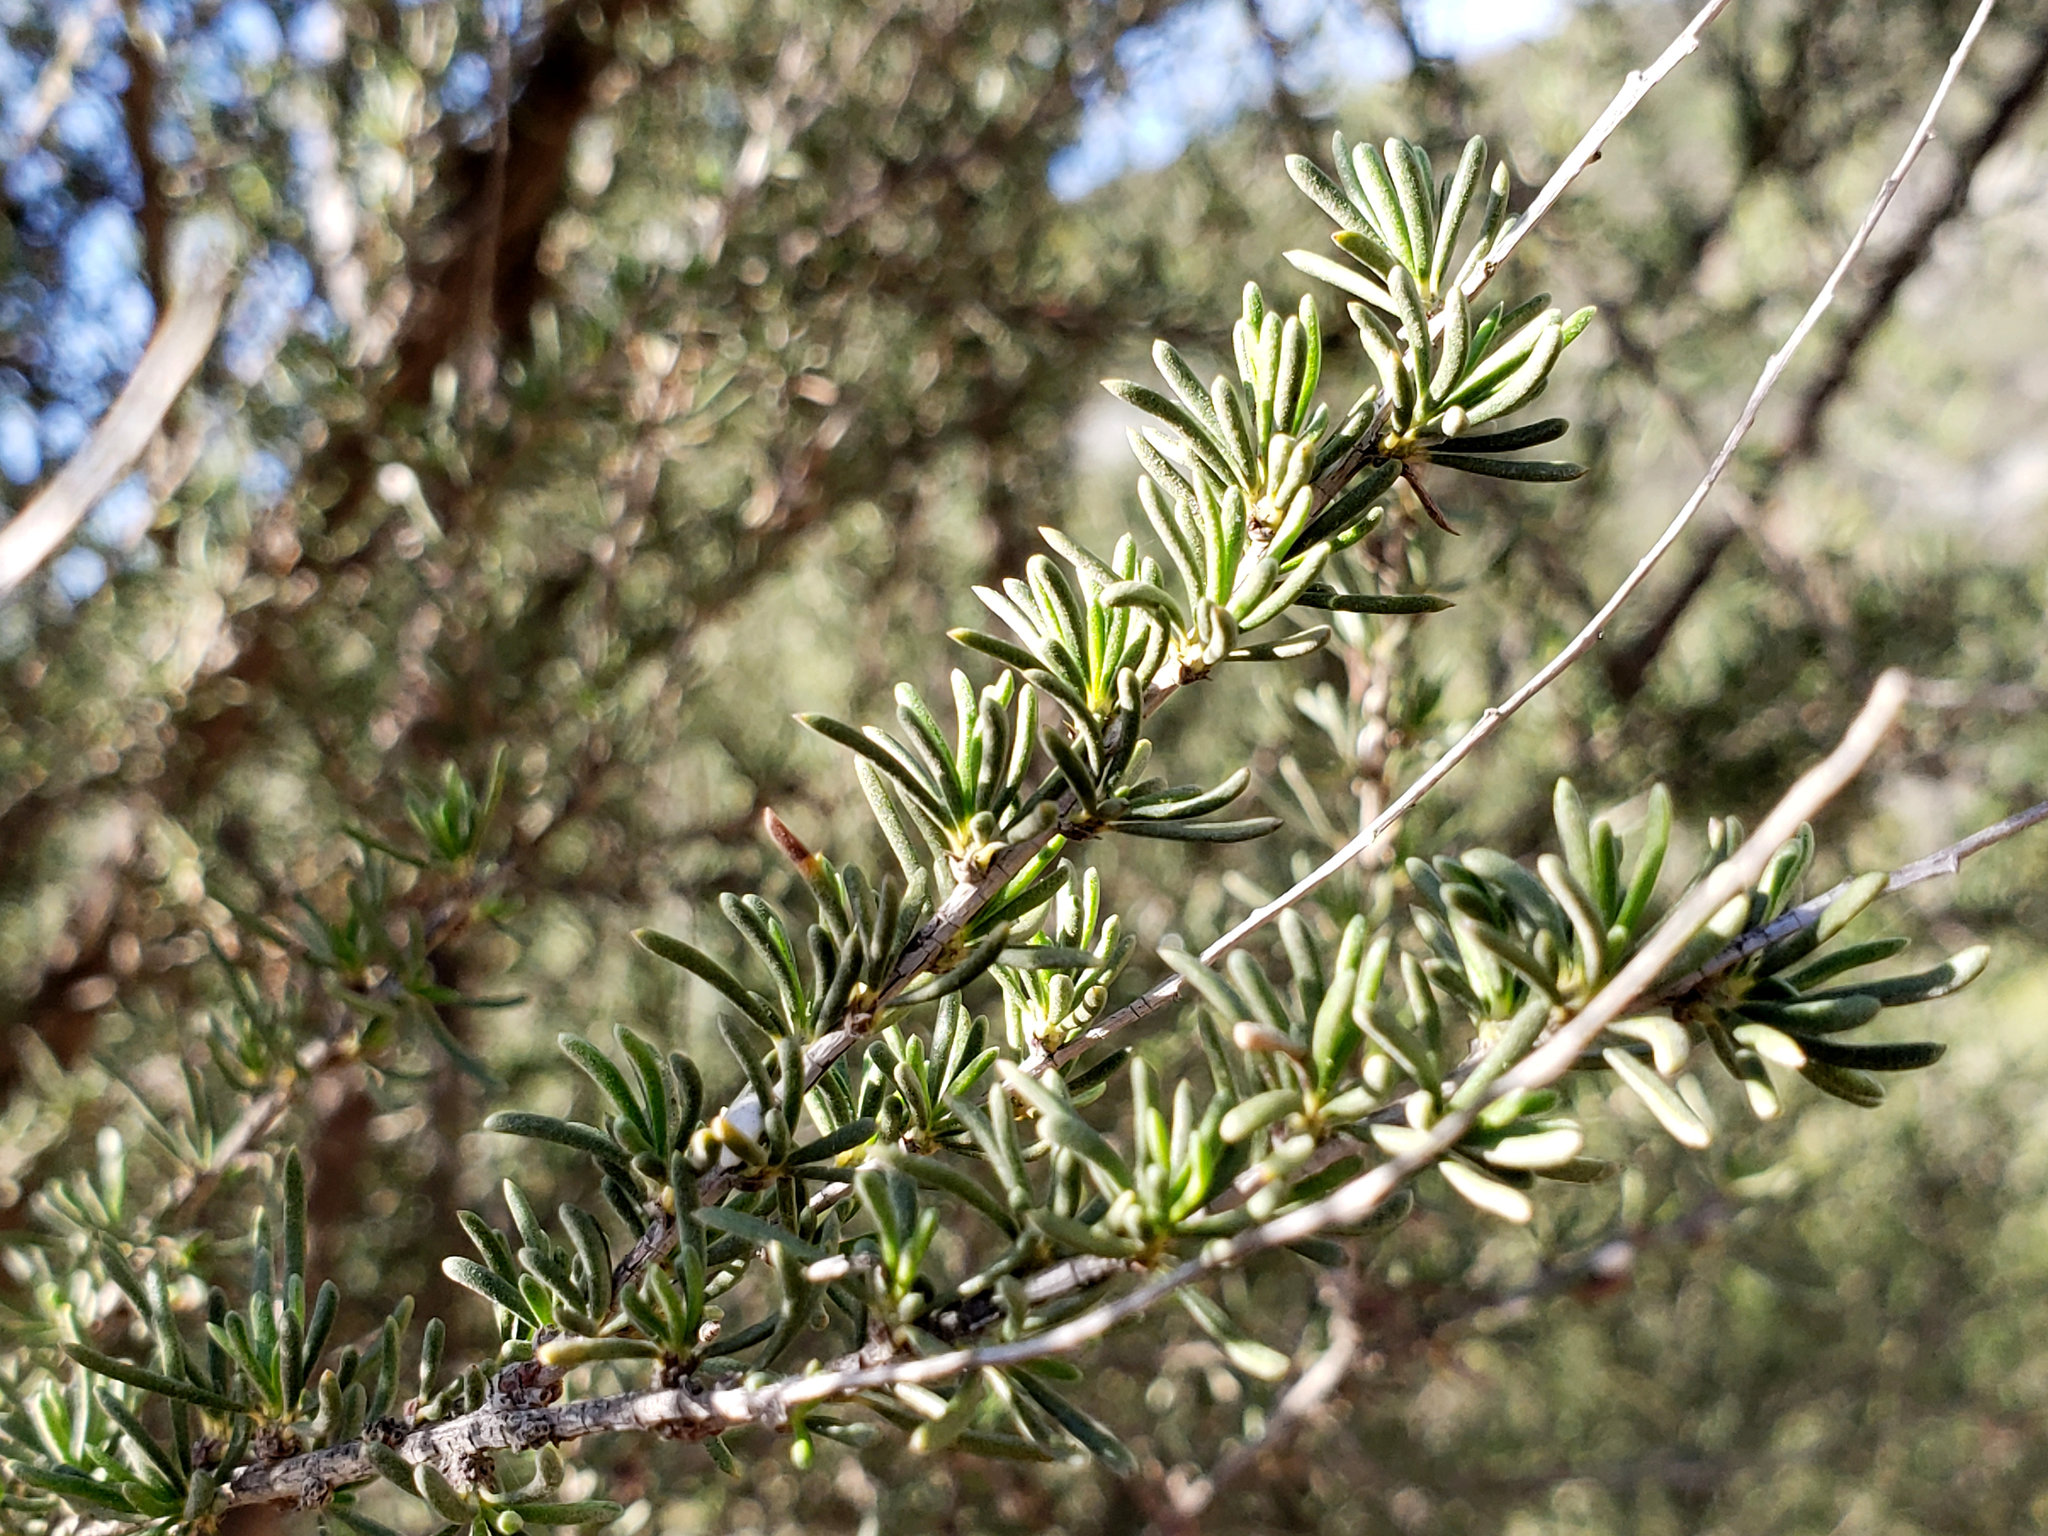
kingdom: Plantae
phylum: Tracheophyta
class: Magnoliopsida
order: Rosales
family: Rosaceae
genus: Adenostoma
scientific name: Adenostoma fasciculatum
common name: Chamise
